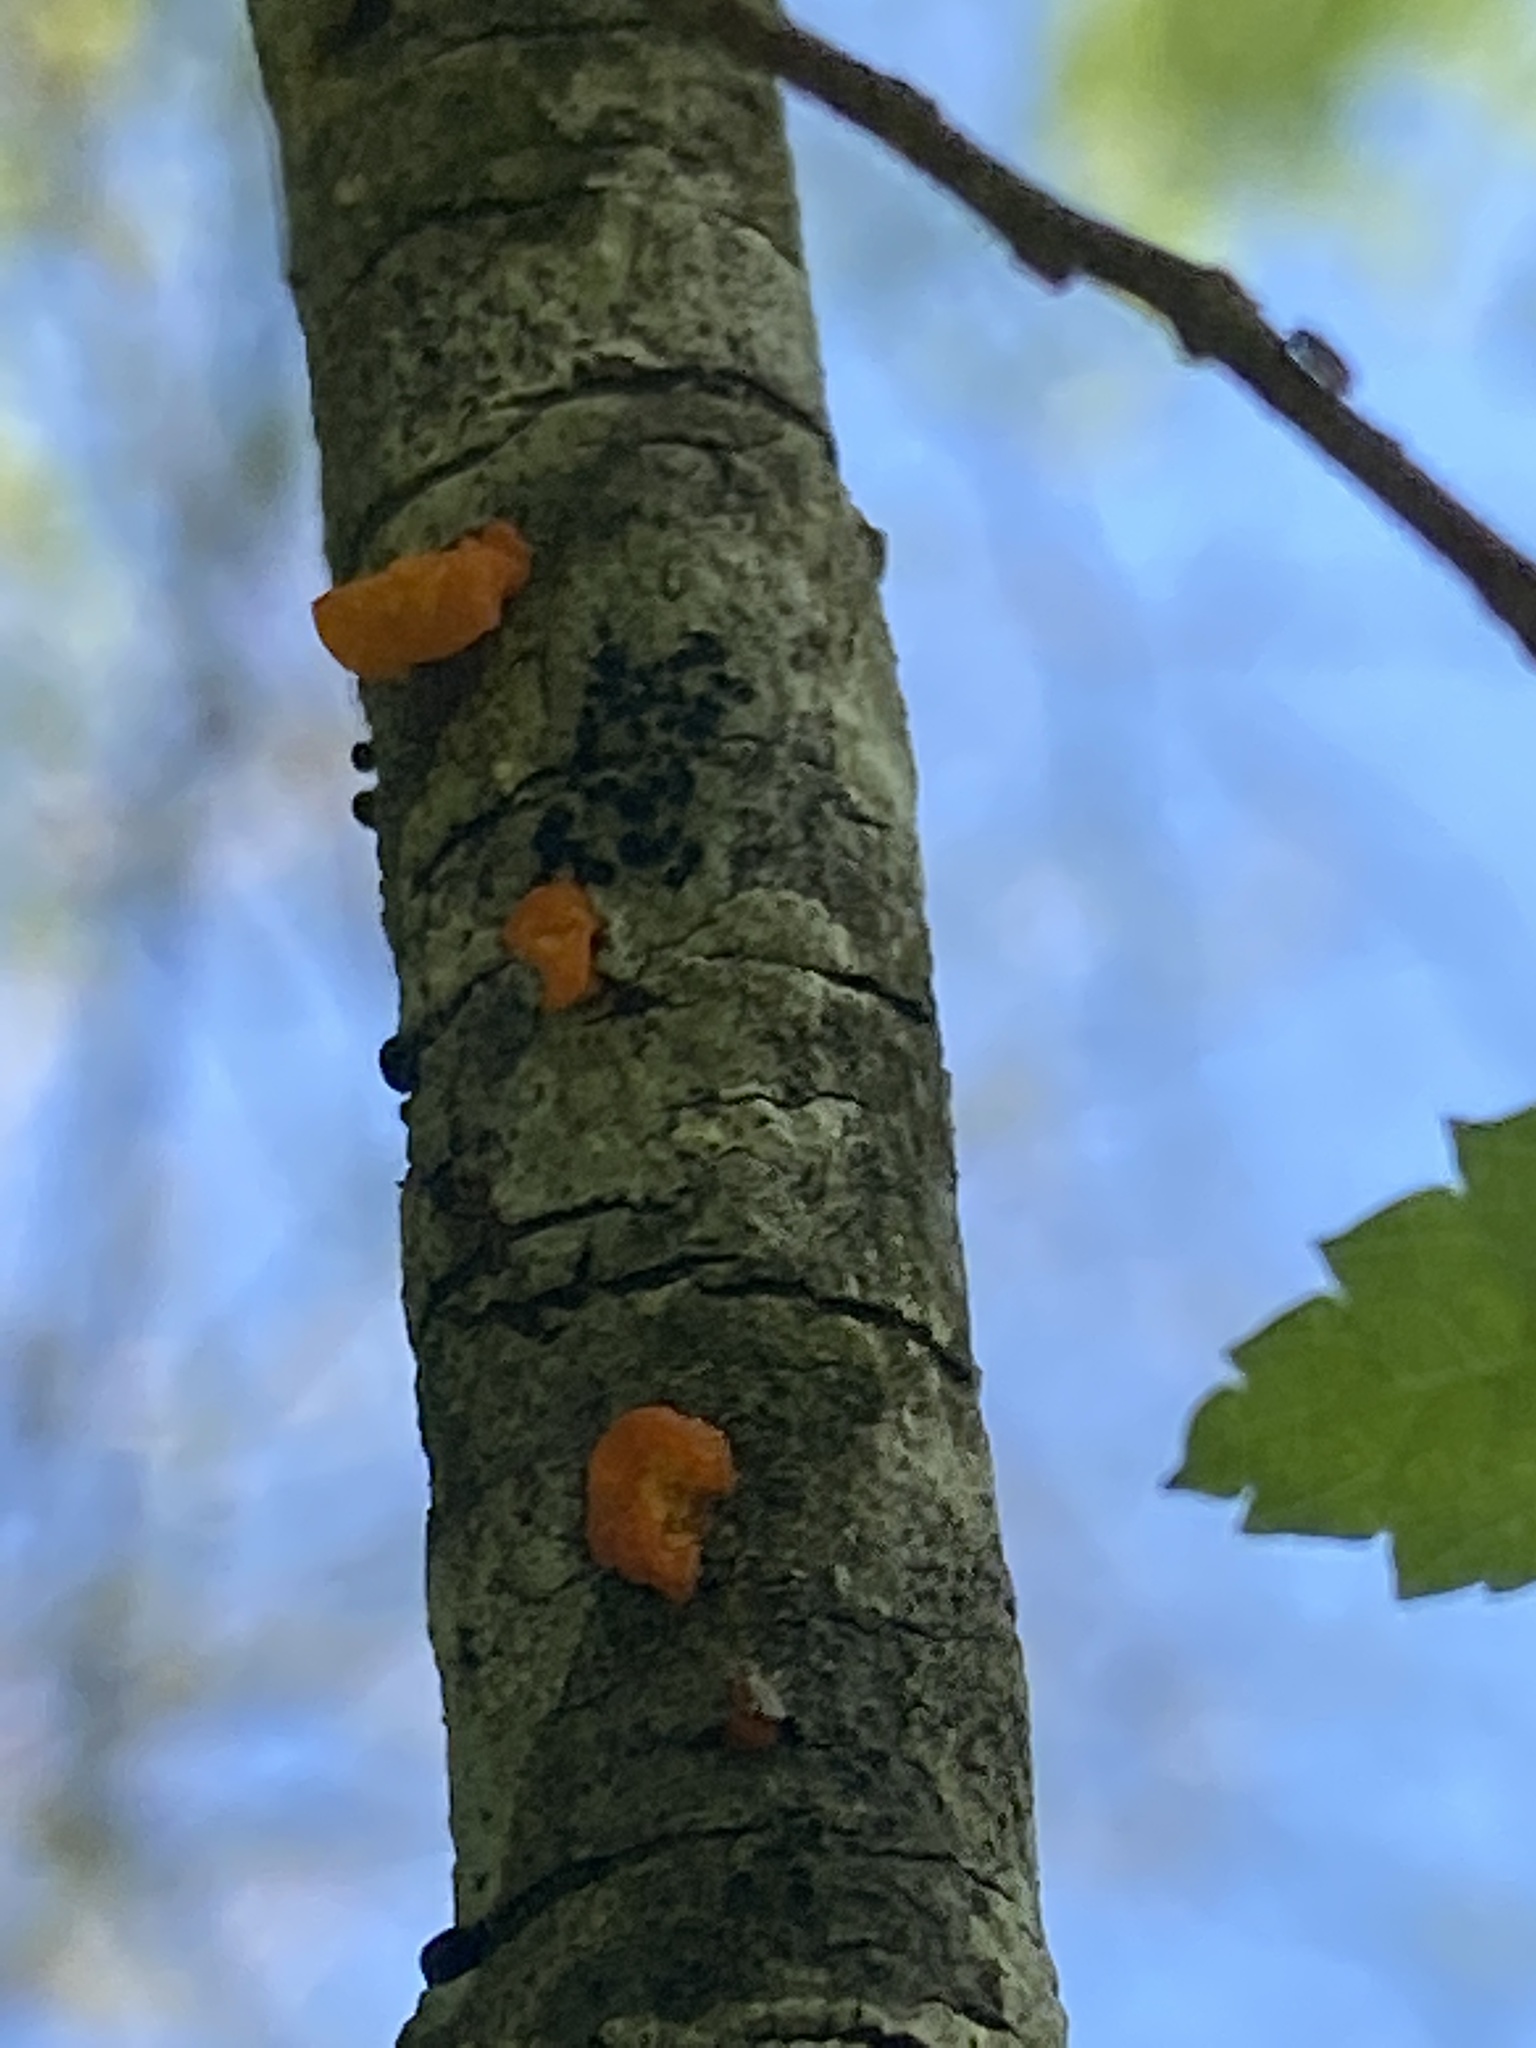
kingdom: Fungi
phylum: Basidiomycota
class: Tremellomycetes
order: Tremellales
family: Tremellaceae
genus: Tremella
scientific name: Tremella mesenterica
